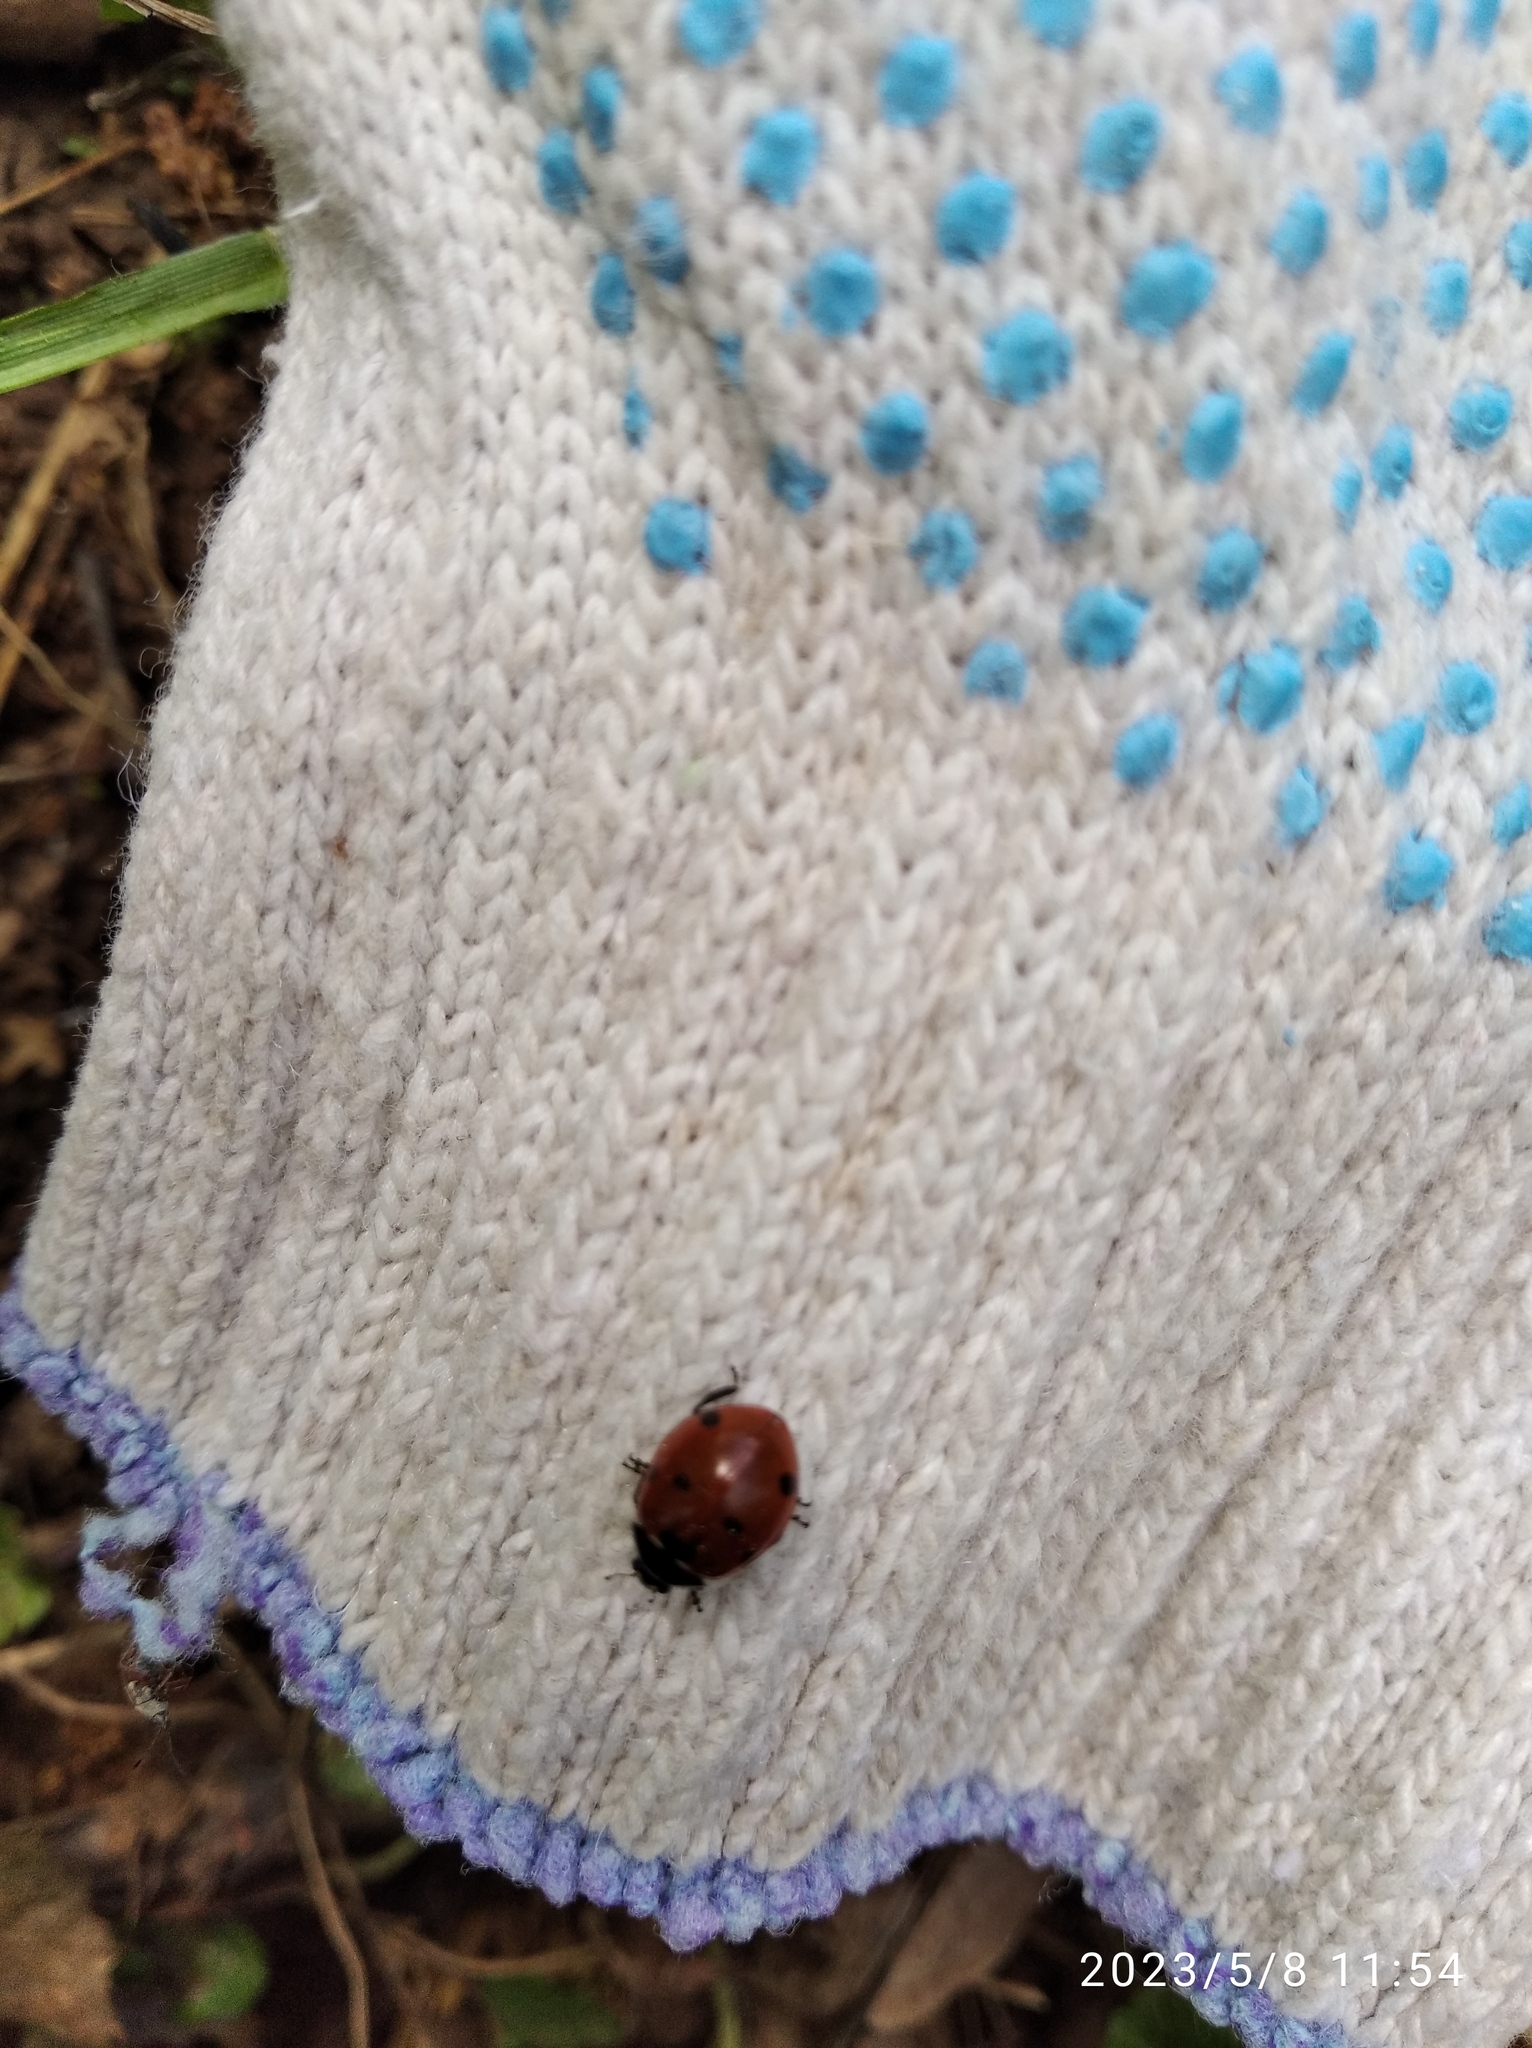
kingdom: Animalia
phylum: Arthropoda
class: Insecta
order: Coleoptera
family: Coccinellidae
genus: Coccinella
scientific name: Coccinella septempunctata
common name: Sevenspotted lady beetle
